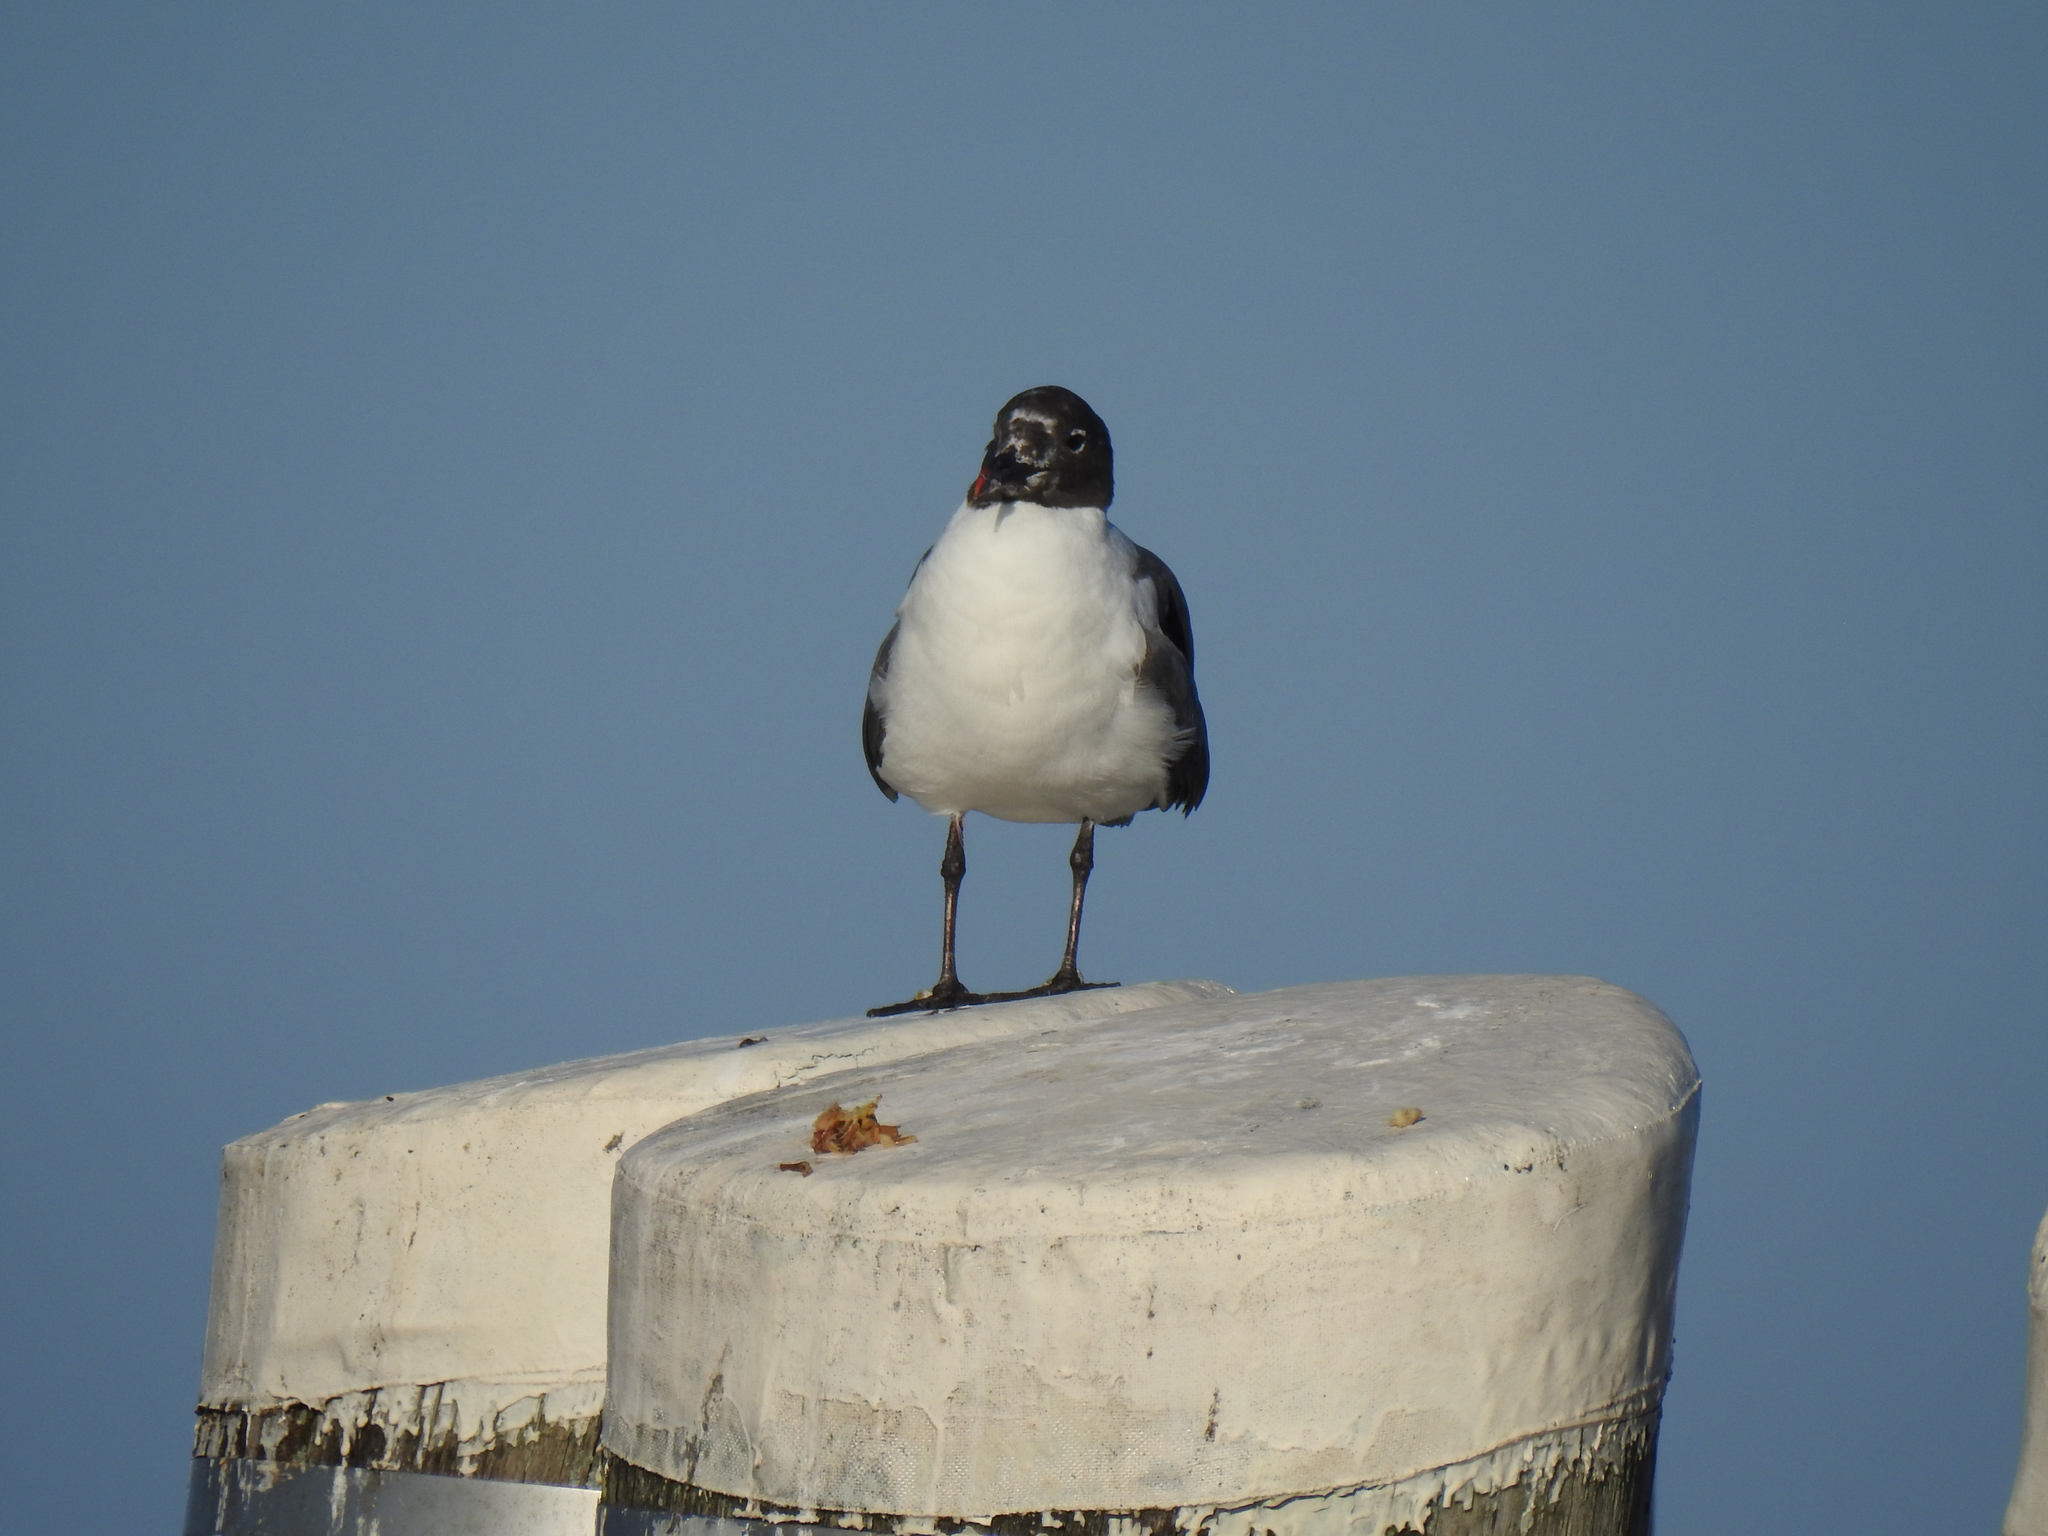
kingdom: Animalia
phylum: Chordata
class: Aves
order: Charadriiformes
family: Laridae
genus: Leucophaeus
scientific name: Leucophaeus atricilla
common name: Laughing gull
